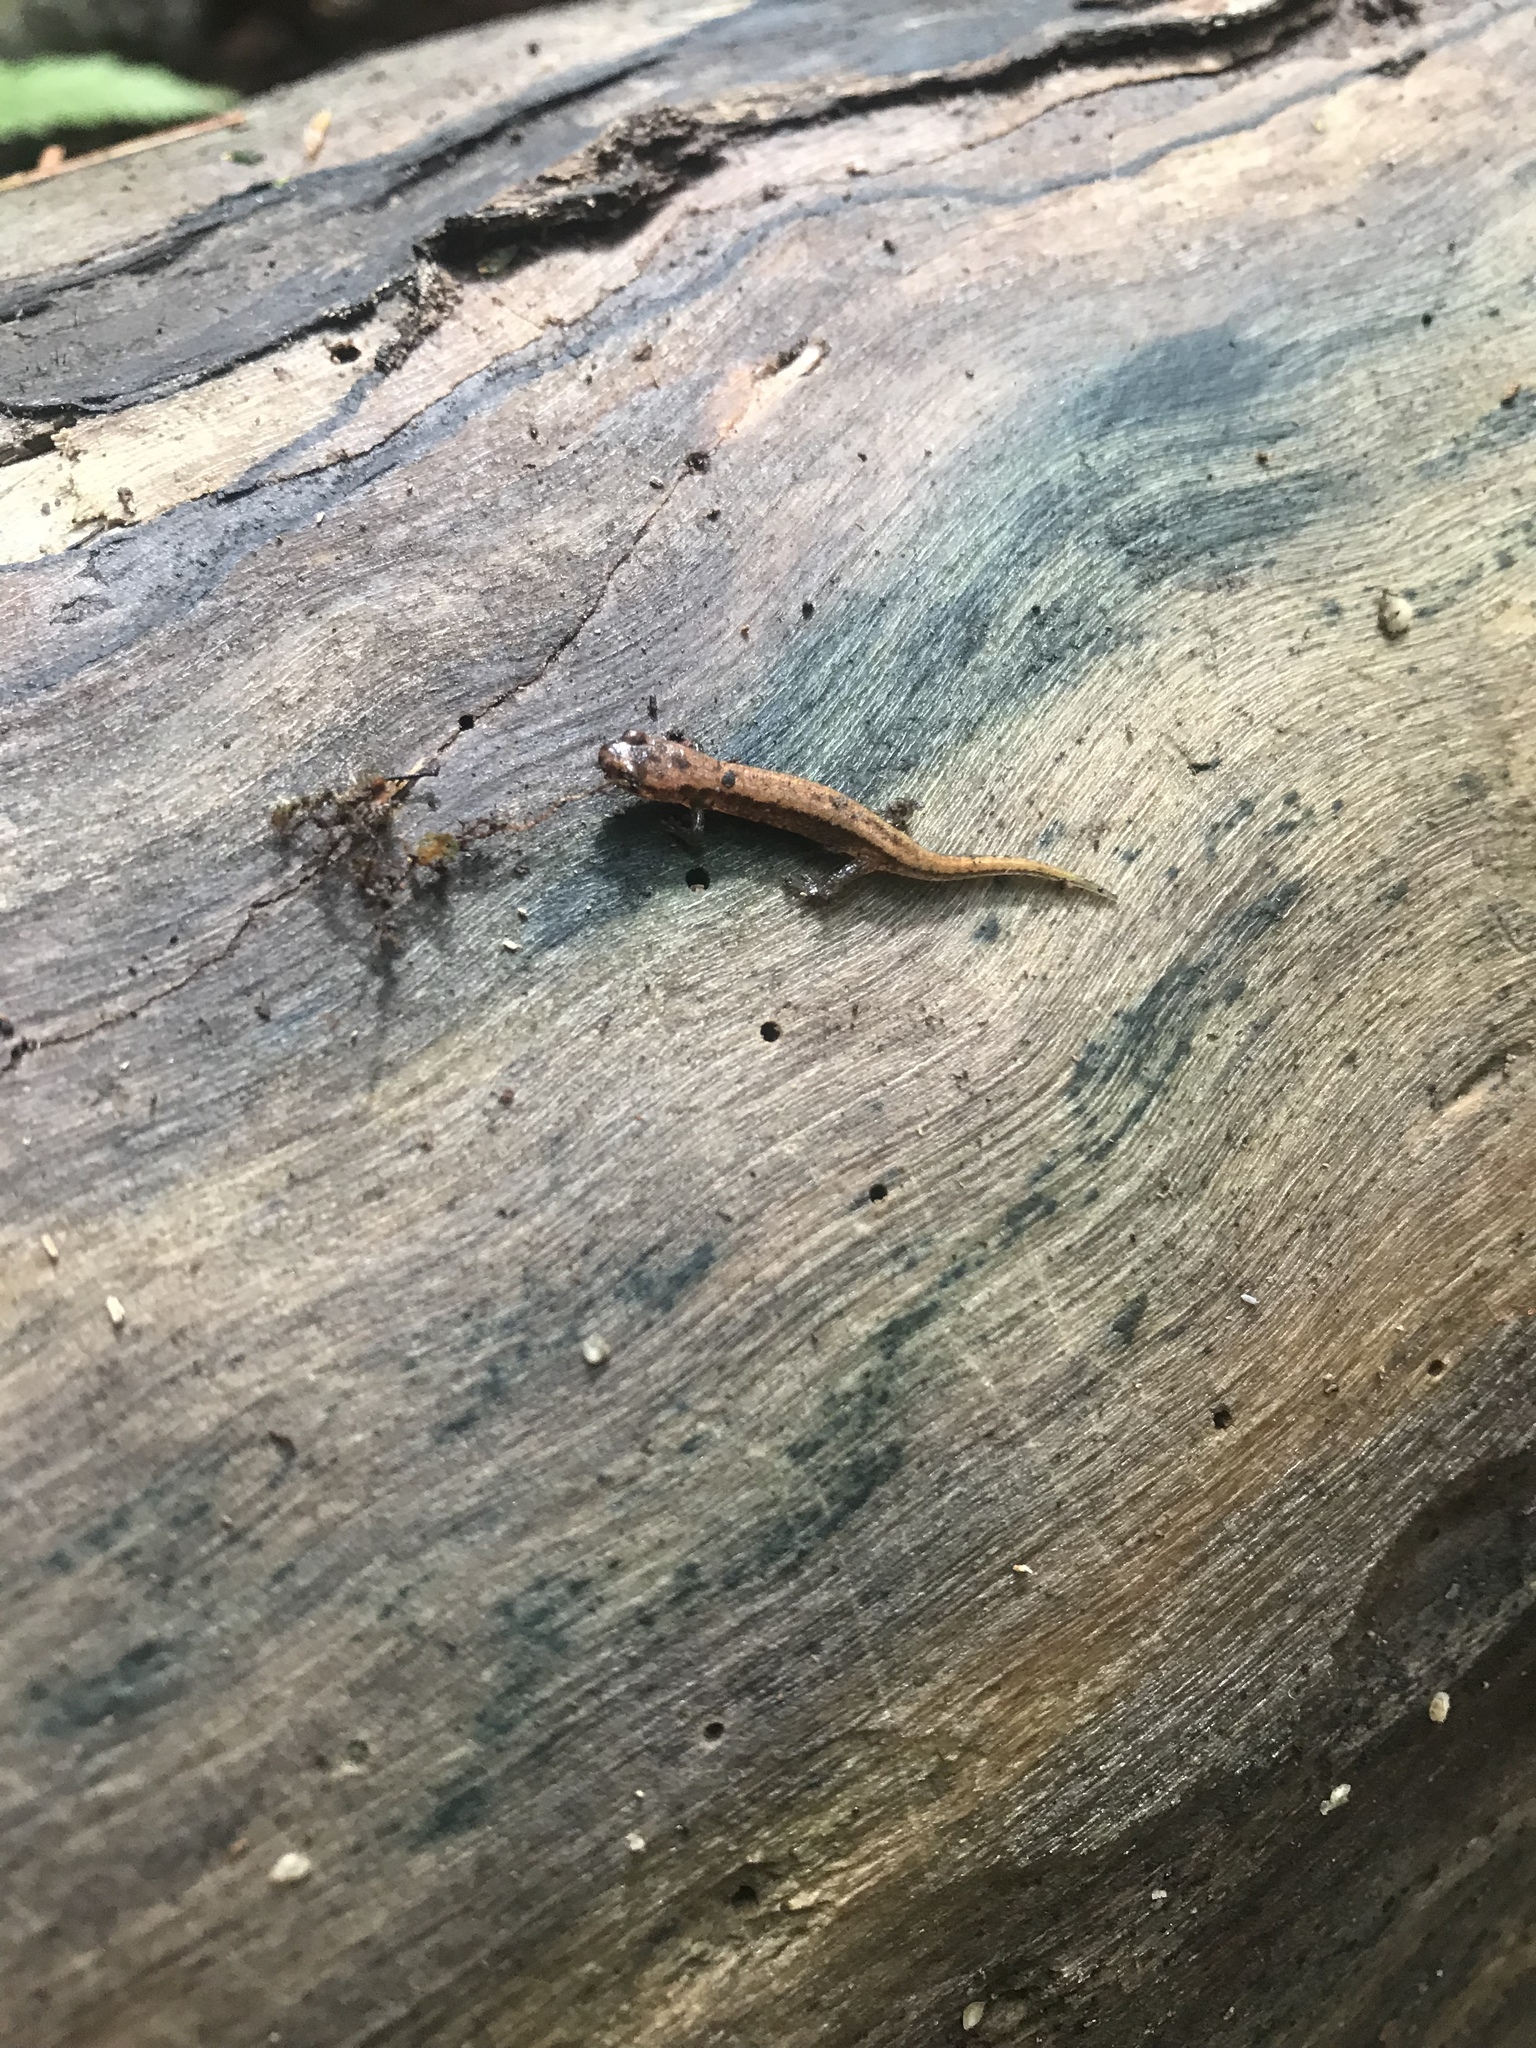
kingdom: Animalia
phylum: Chordata
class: Amphibia
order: Caudata
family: Plethodontidae
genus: Desmognathus
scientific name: Desmognathus ochrophaeus
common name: Allegheny mountain dusky salamander
